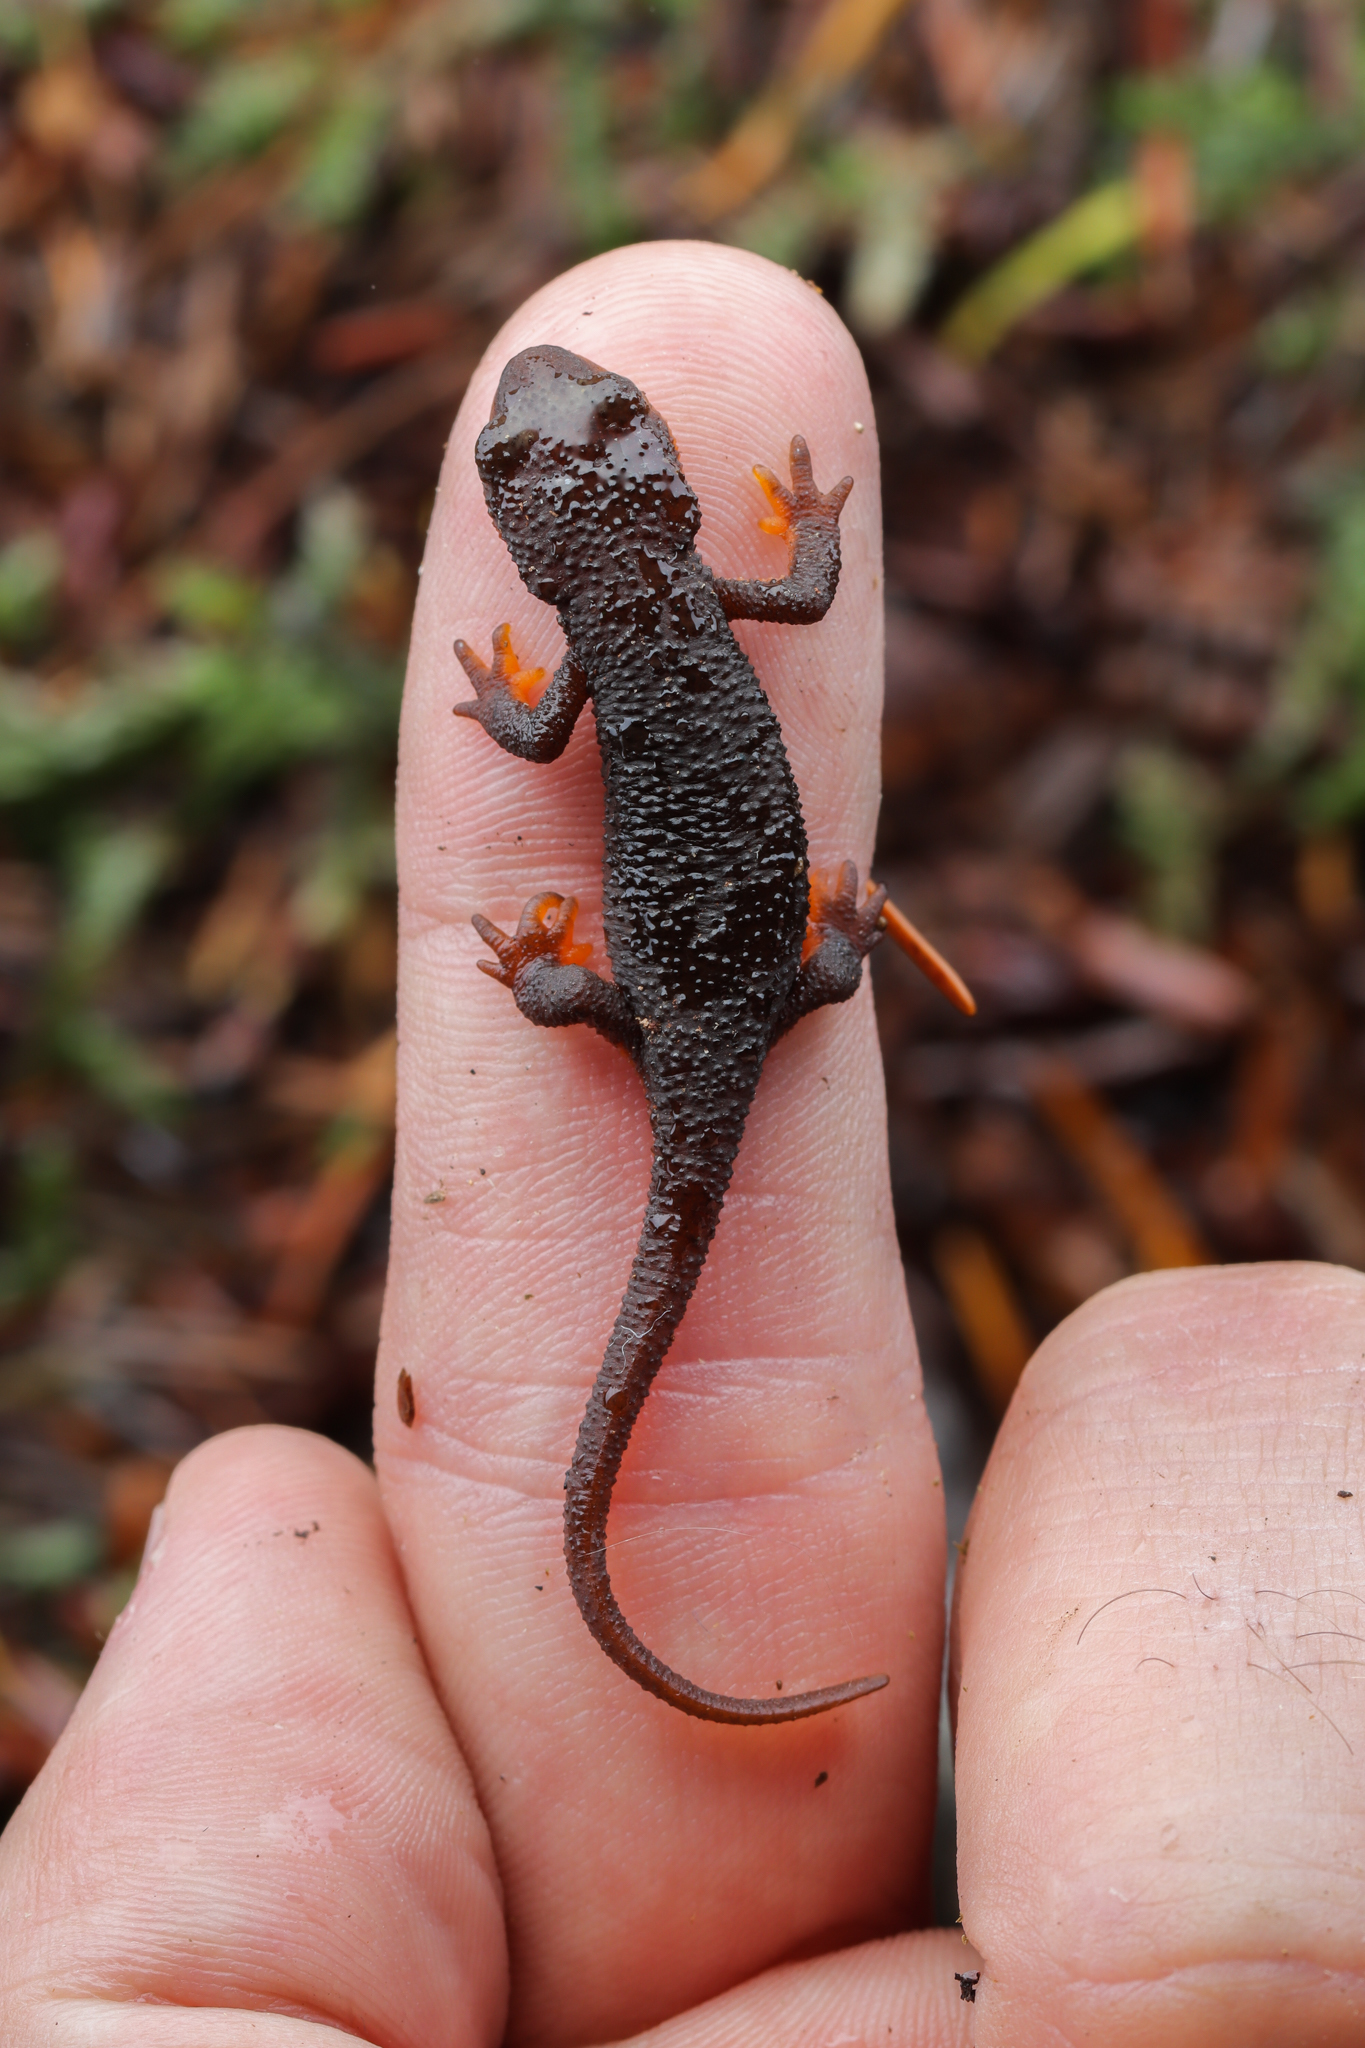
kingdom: Animalia
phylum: Chordata
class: Amphibia
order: Caudata
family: Salamandridae
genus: Taricha
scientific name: Taricha granulosa
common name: Roughskin newt
